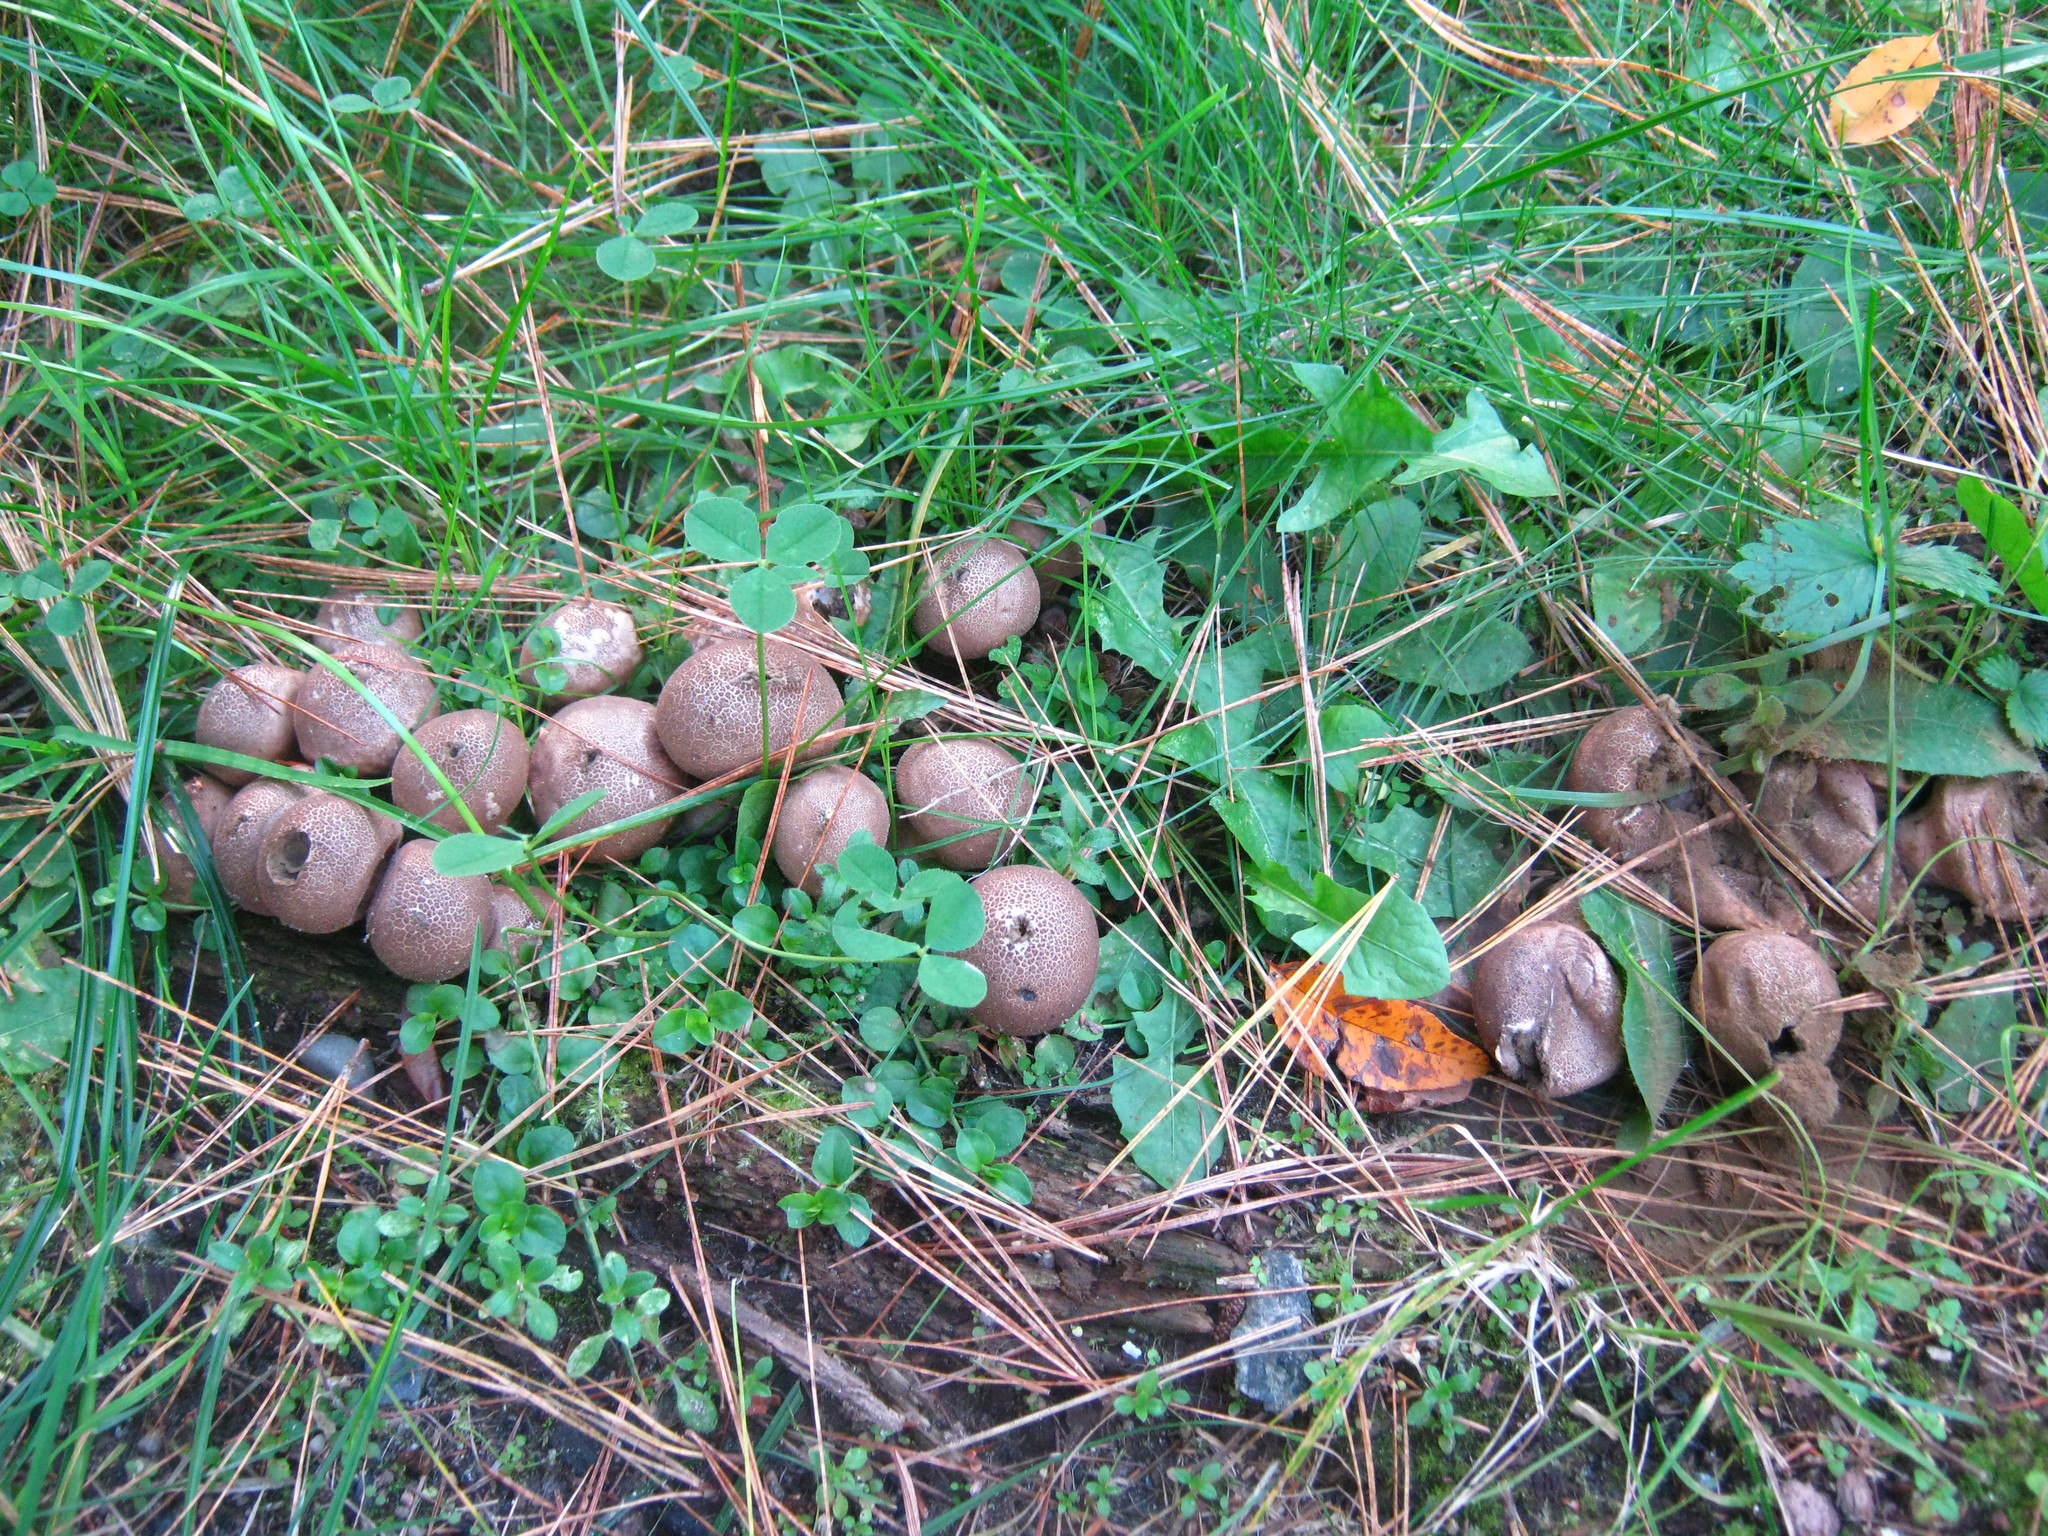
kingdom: Fungi
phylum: Basidiomycota
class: Agaricomycetes
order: Agaricales
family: Lycoperdaceae
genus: Apioperdon
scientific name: Apioperdon pyriforme
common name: Pear-shaped puffball
